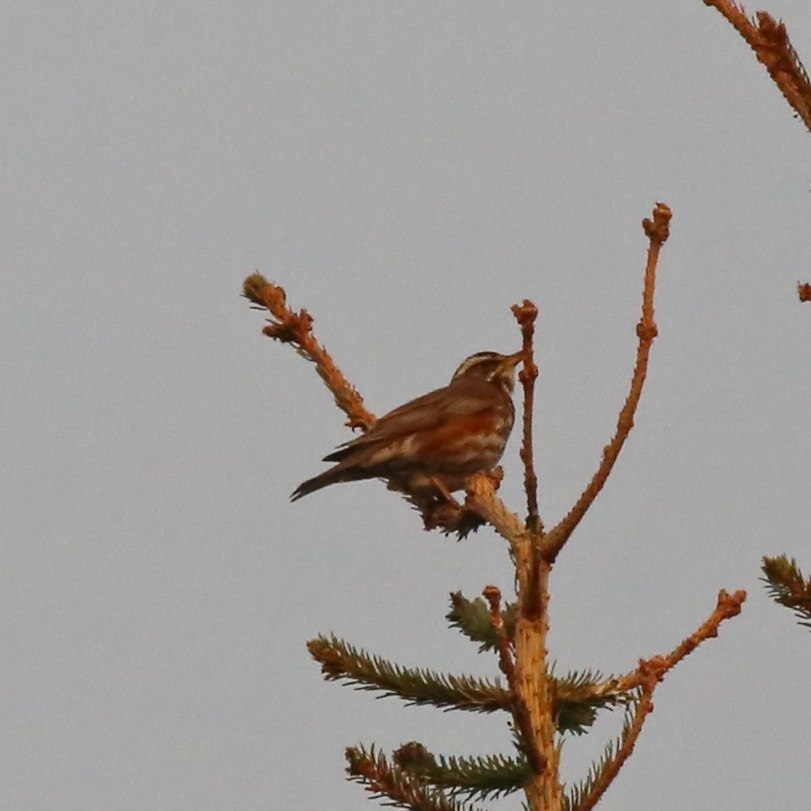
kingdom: Animalia
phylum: Chordata
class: Aves
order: Passeriformes
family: Turdidae
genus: Turdus
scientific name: Turdus iliacus
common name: Redwing
